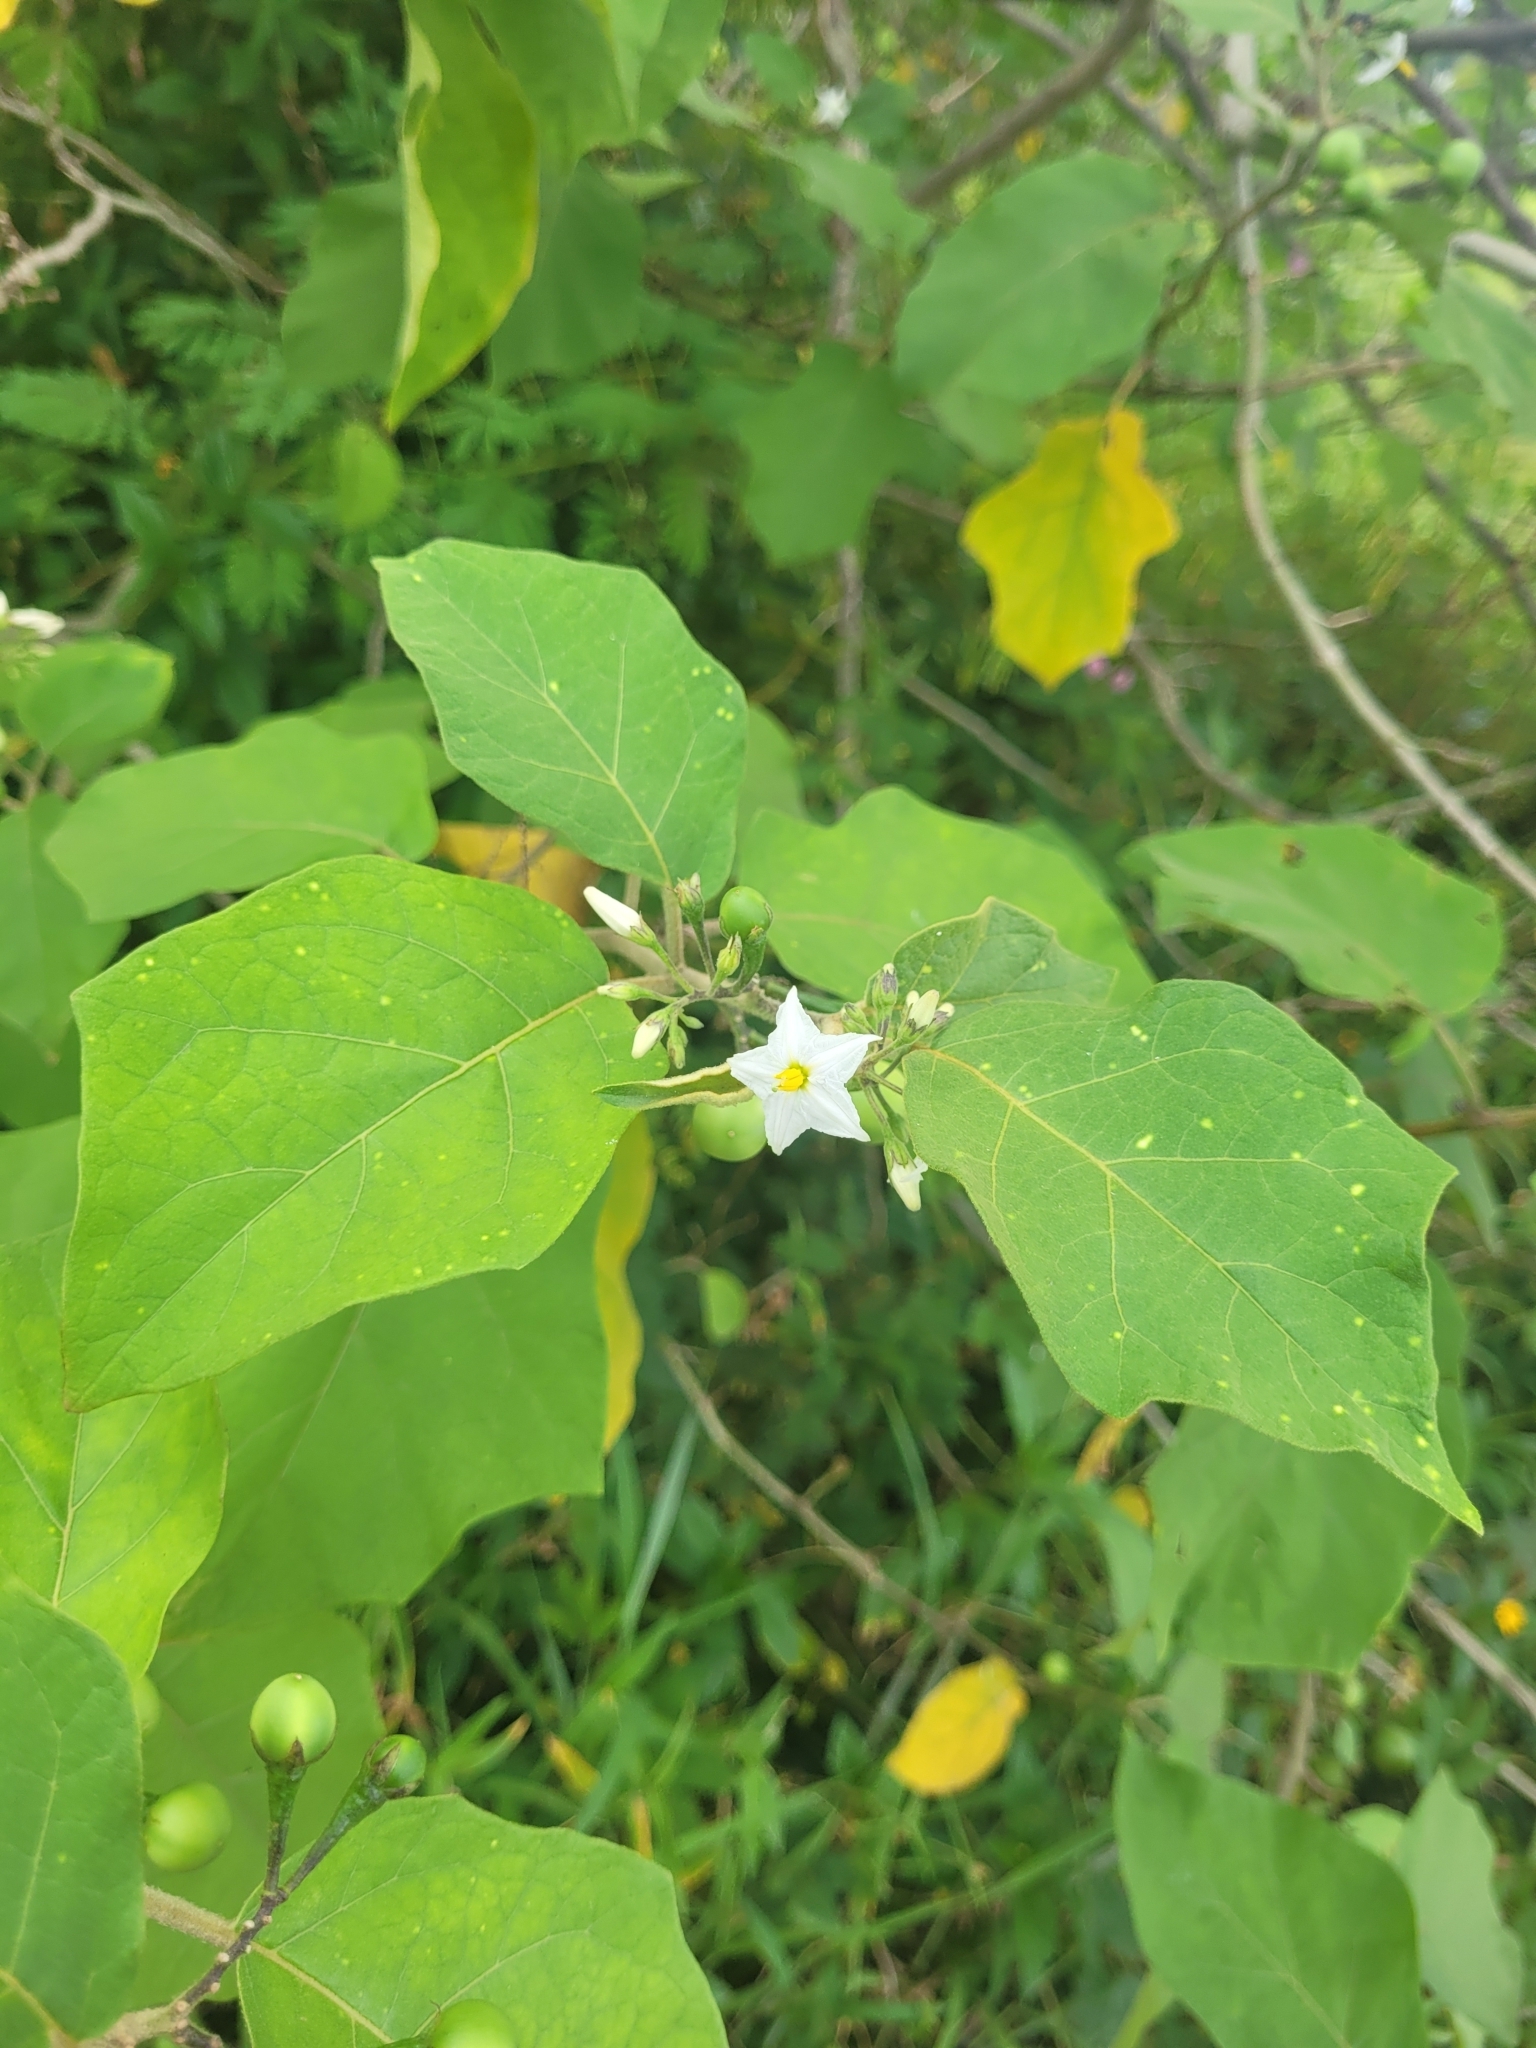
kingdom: Plantae
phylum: Tracheophyta
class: Magnoliopsida
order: Solanales
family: Solanaceae
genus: Solanum
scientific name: Solanum torvum
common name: Turkey berry
